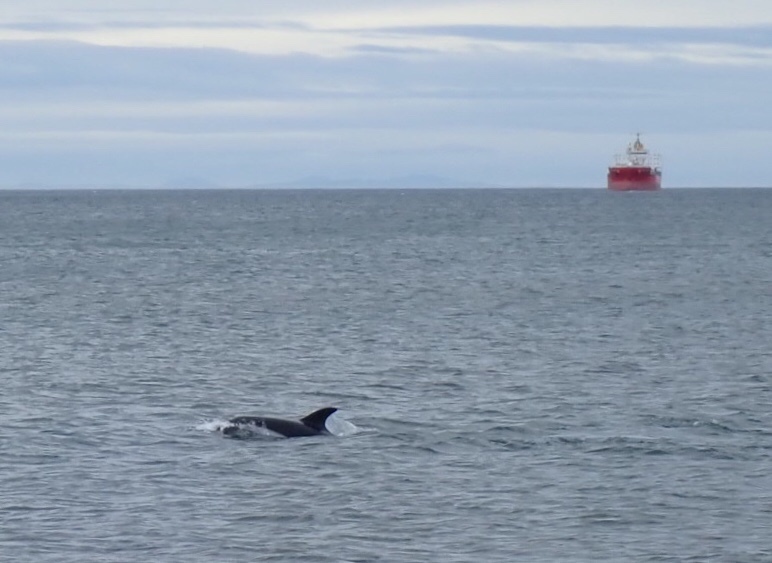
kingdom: Animalia
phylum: Chordata
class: Mammalia
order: Cetacea
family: Delphinidae
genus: Lagenorhynchus
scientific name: Lagenorhynchus australis
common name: Peale's dolphin
